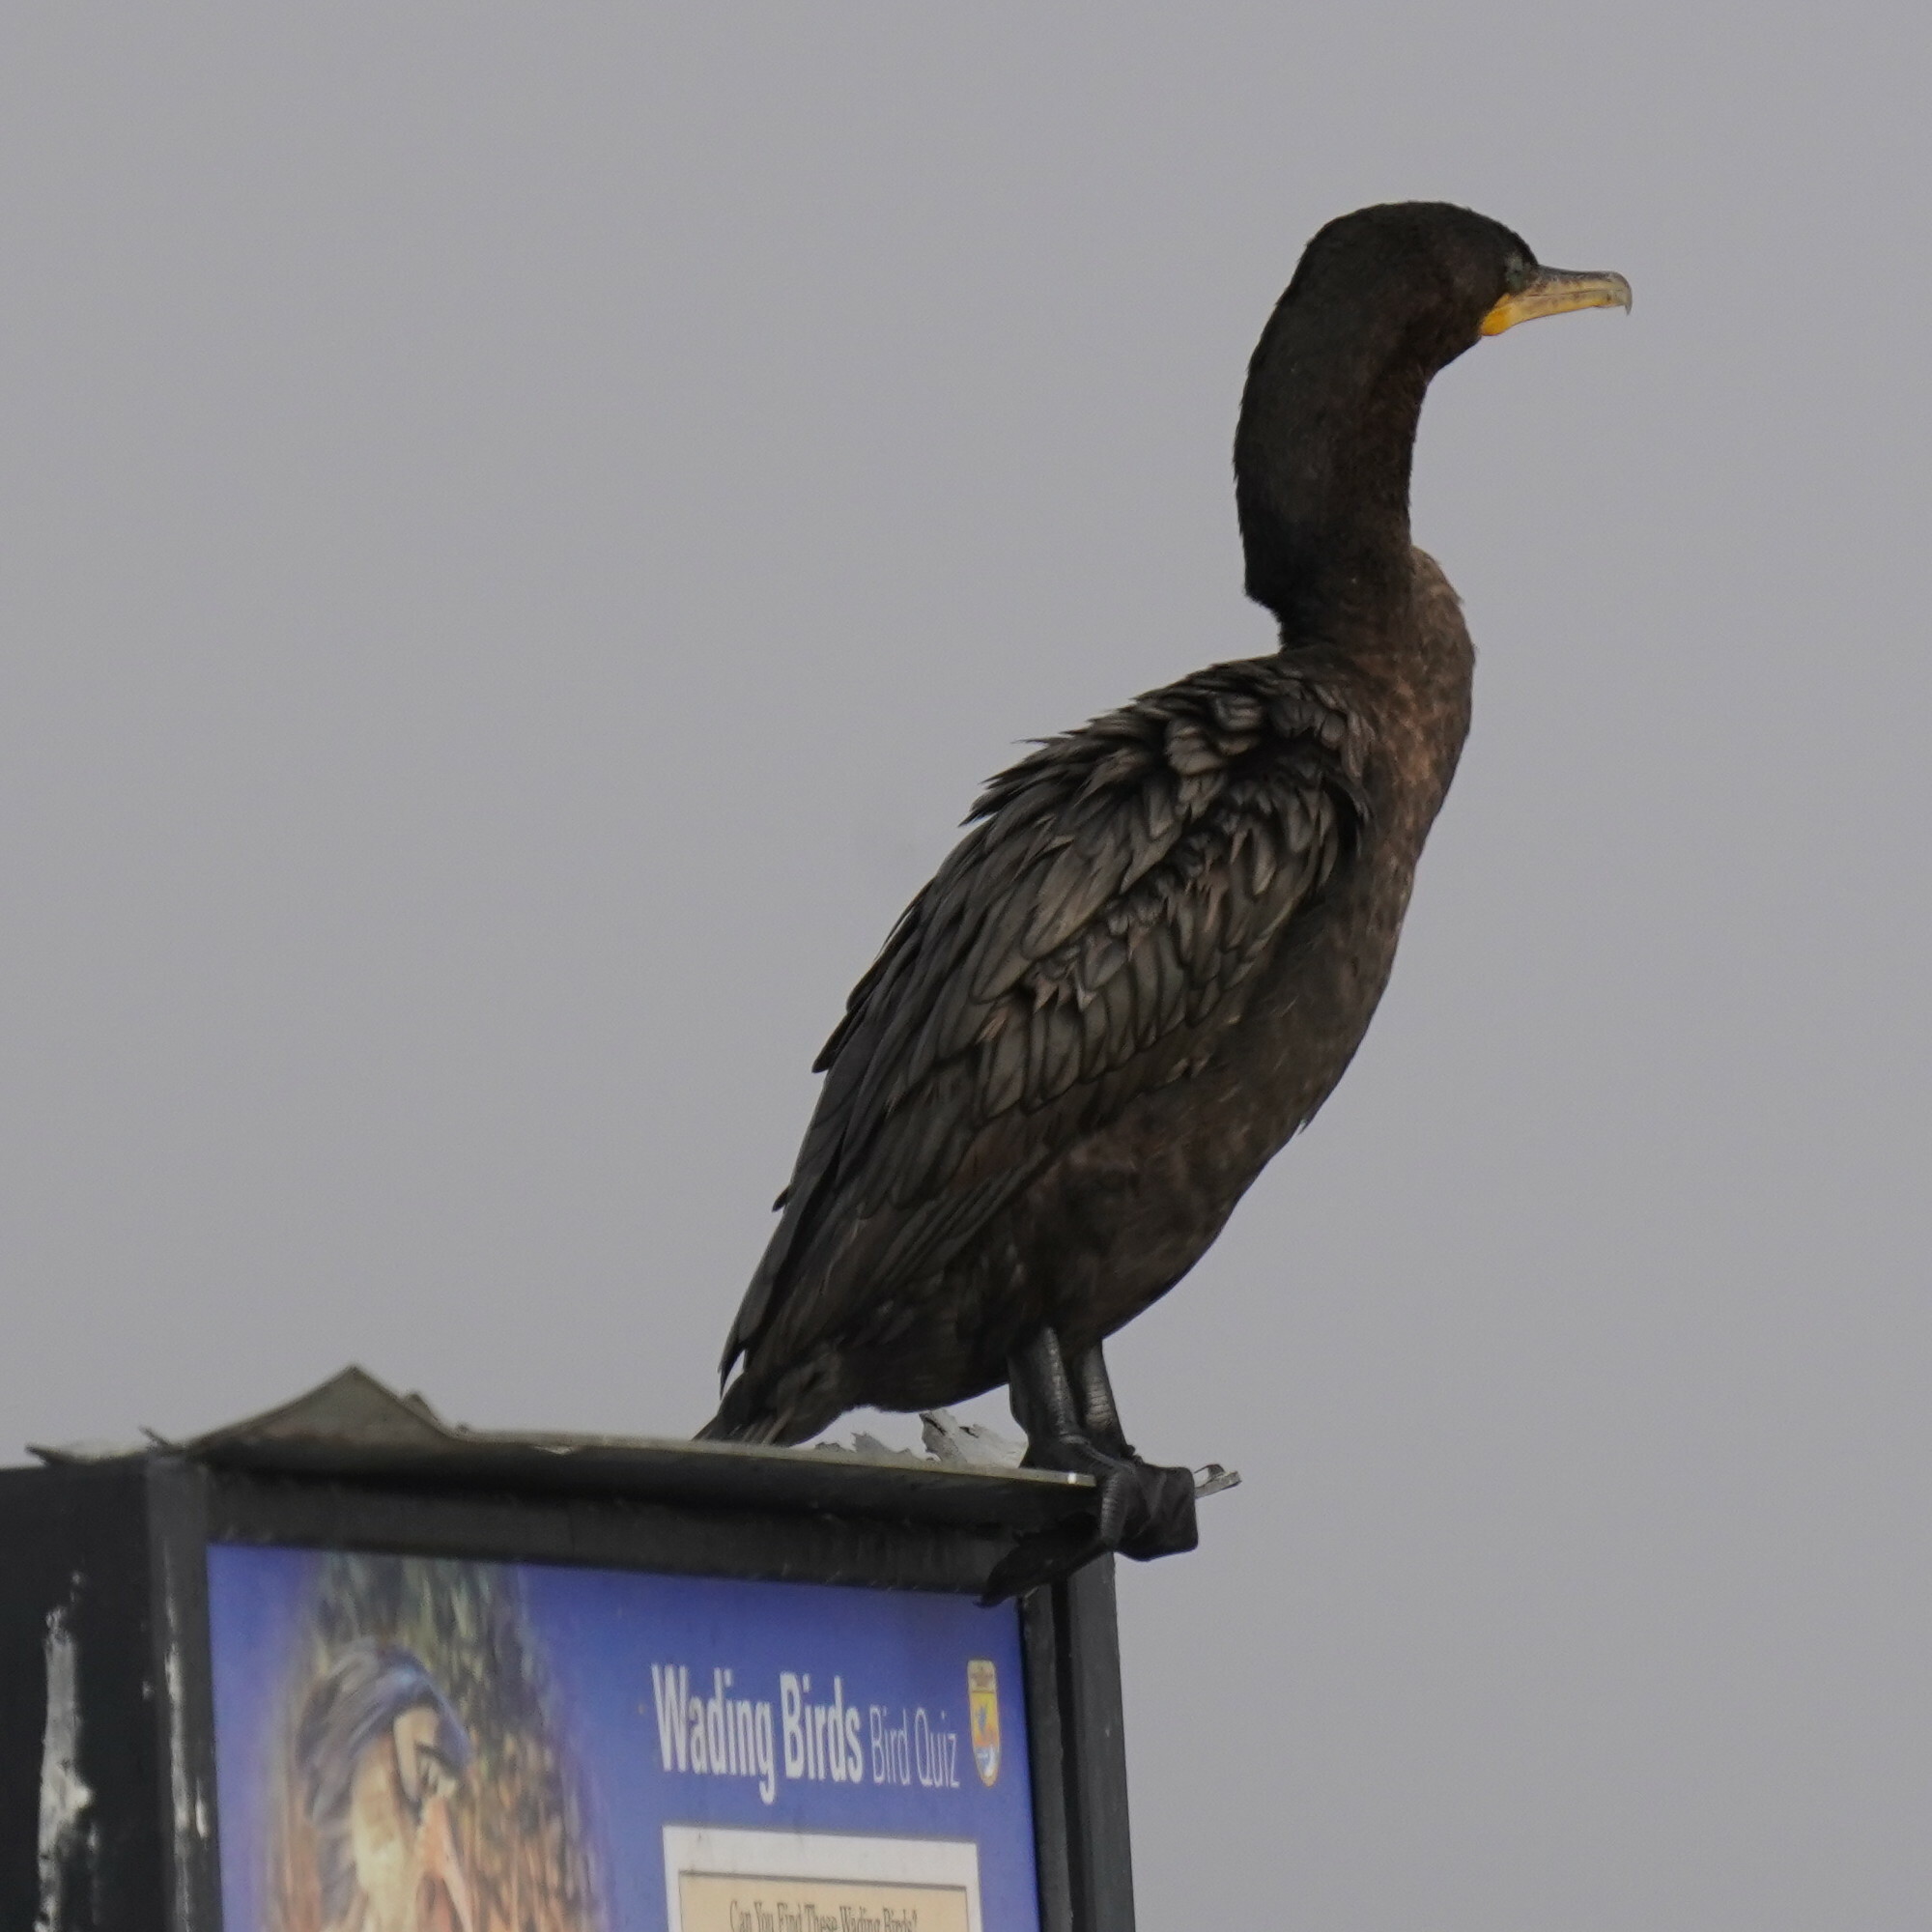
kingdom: Animalia
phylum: Chordata
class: Aves
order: Suliformes
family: Phalacrocoracidae
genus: Phalacrocorax
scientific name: Phalacrocorax auritus
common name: Double-crested cormorant
